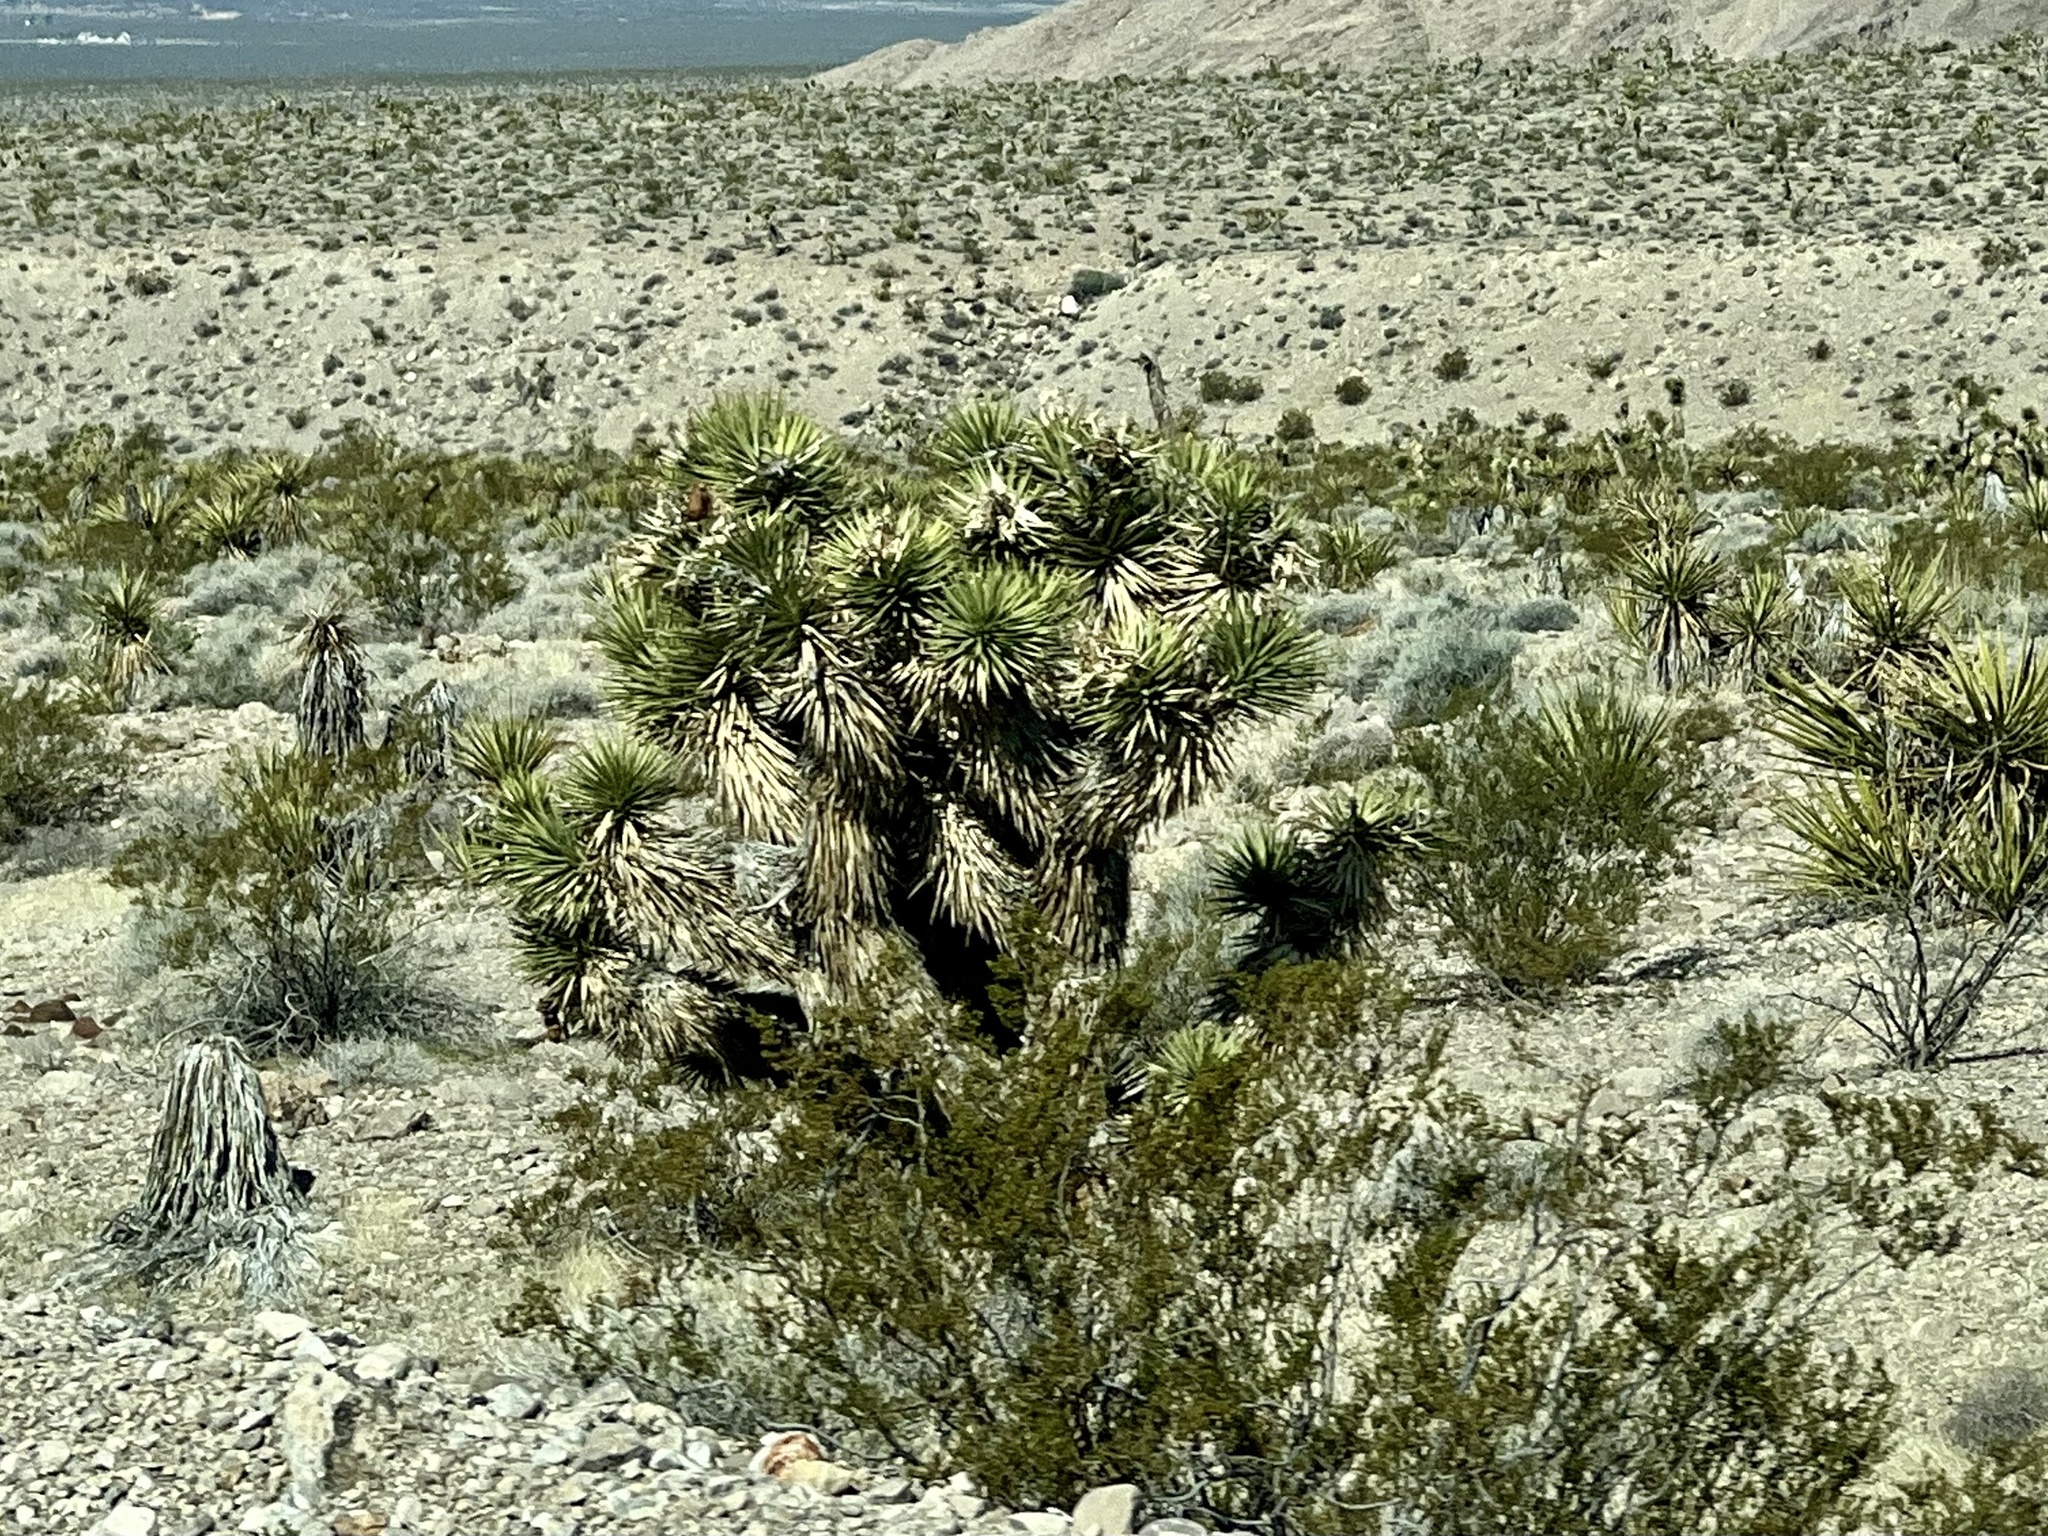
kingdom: Plantae
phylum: Tracheophyta
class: Liliopsida
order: Asparagales
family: Asparagaceae
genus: Yucca
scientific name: Yucca brevifolia
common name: Joshua tree
